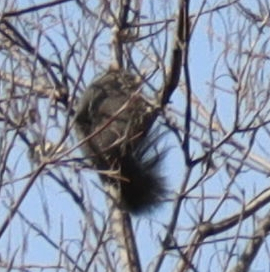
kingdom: Animalia
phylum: Chordata
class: Mammalia
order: Rodentia
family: Sciuridae
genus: Sciurus
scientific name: Sciurus carolinensis
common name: Eastern gray squirrel
